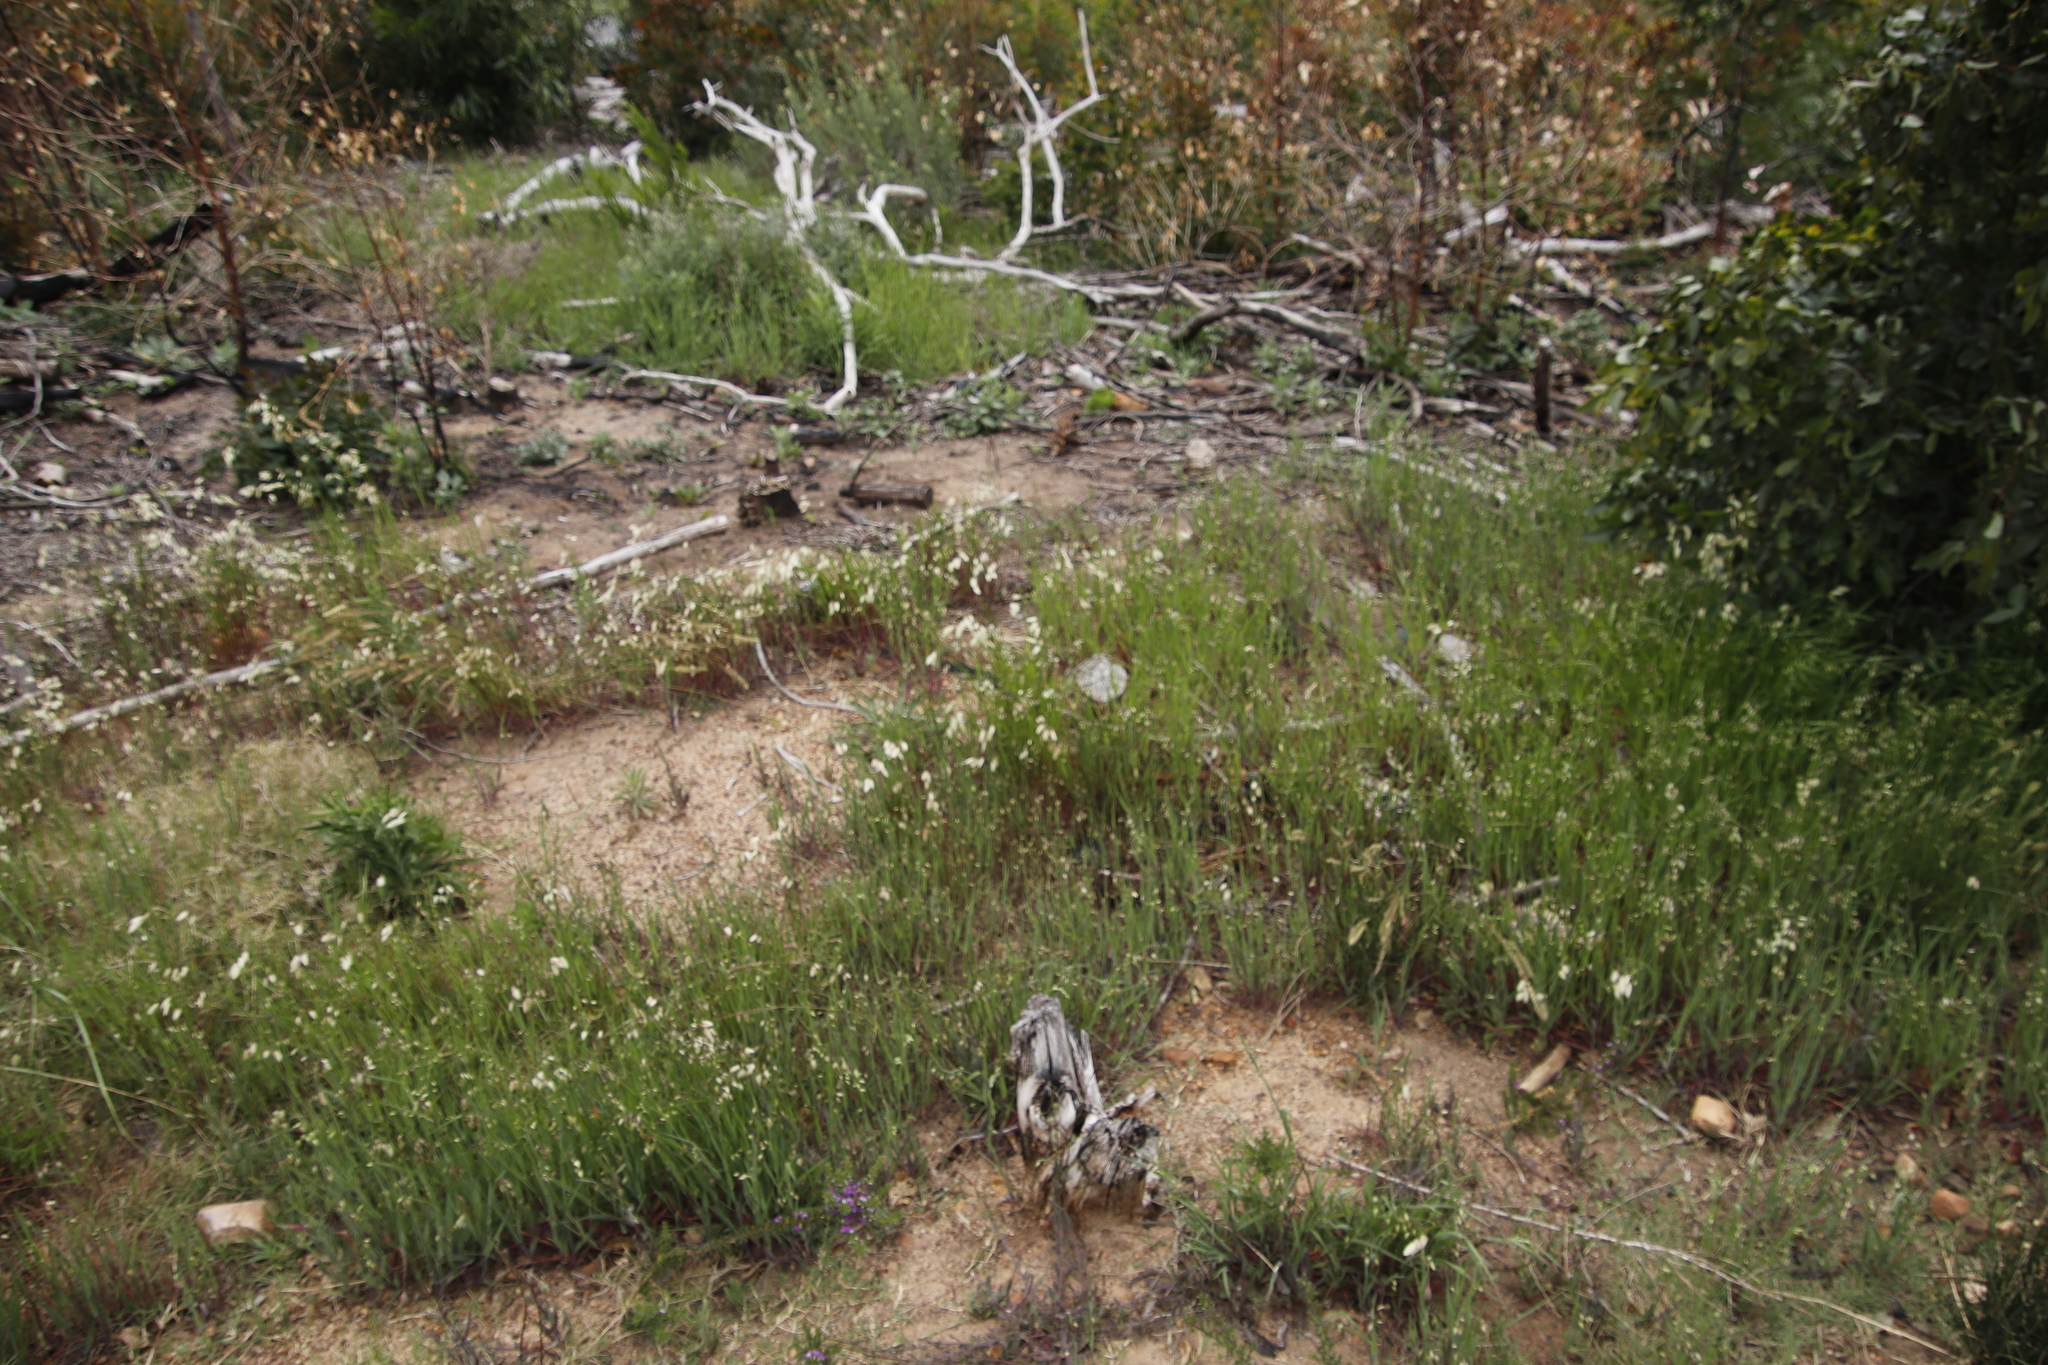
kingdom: Plantae
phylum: Tracheophyta
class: Liliopsida
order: Poales
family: Poaceae
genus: Briza
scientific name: Briza maxima
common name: Big quakinggrass
